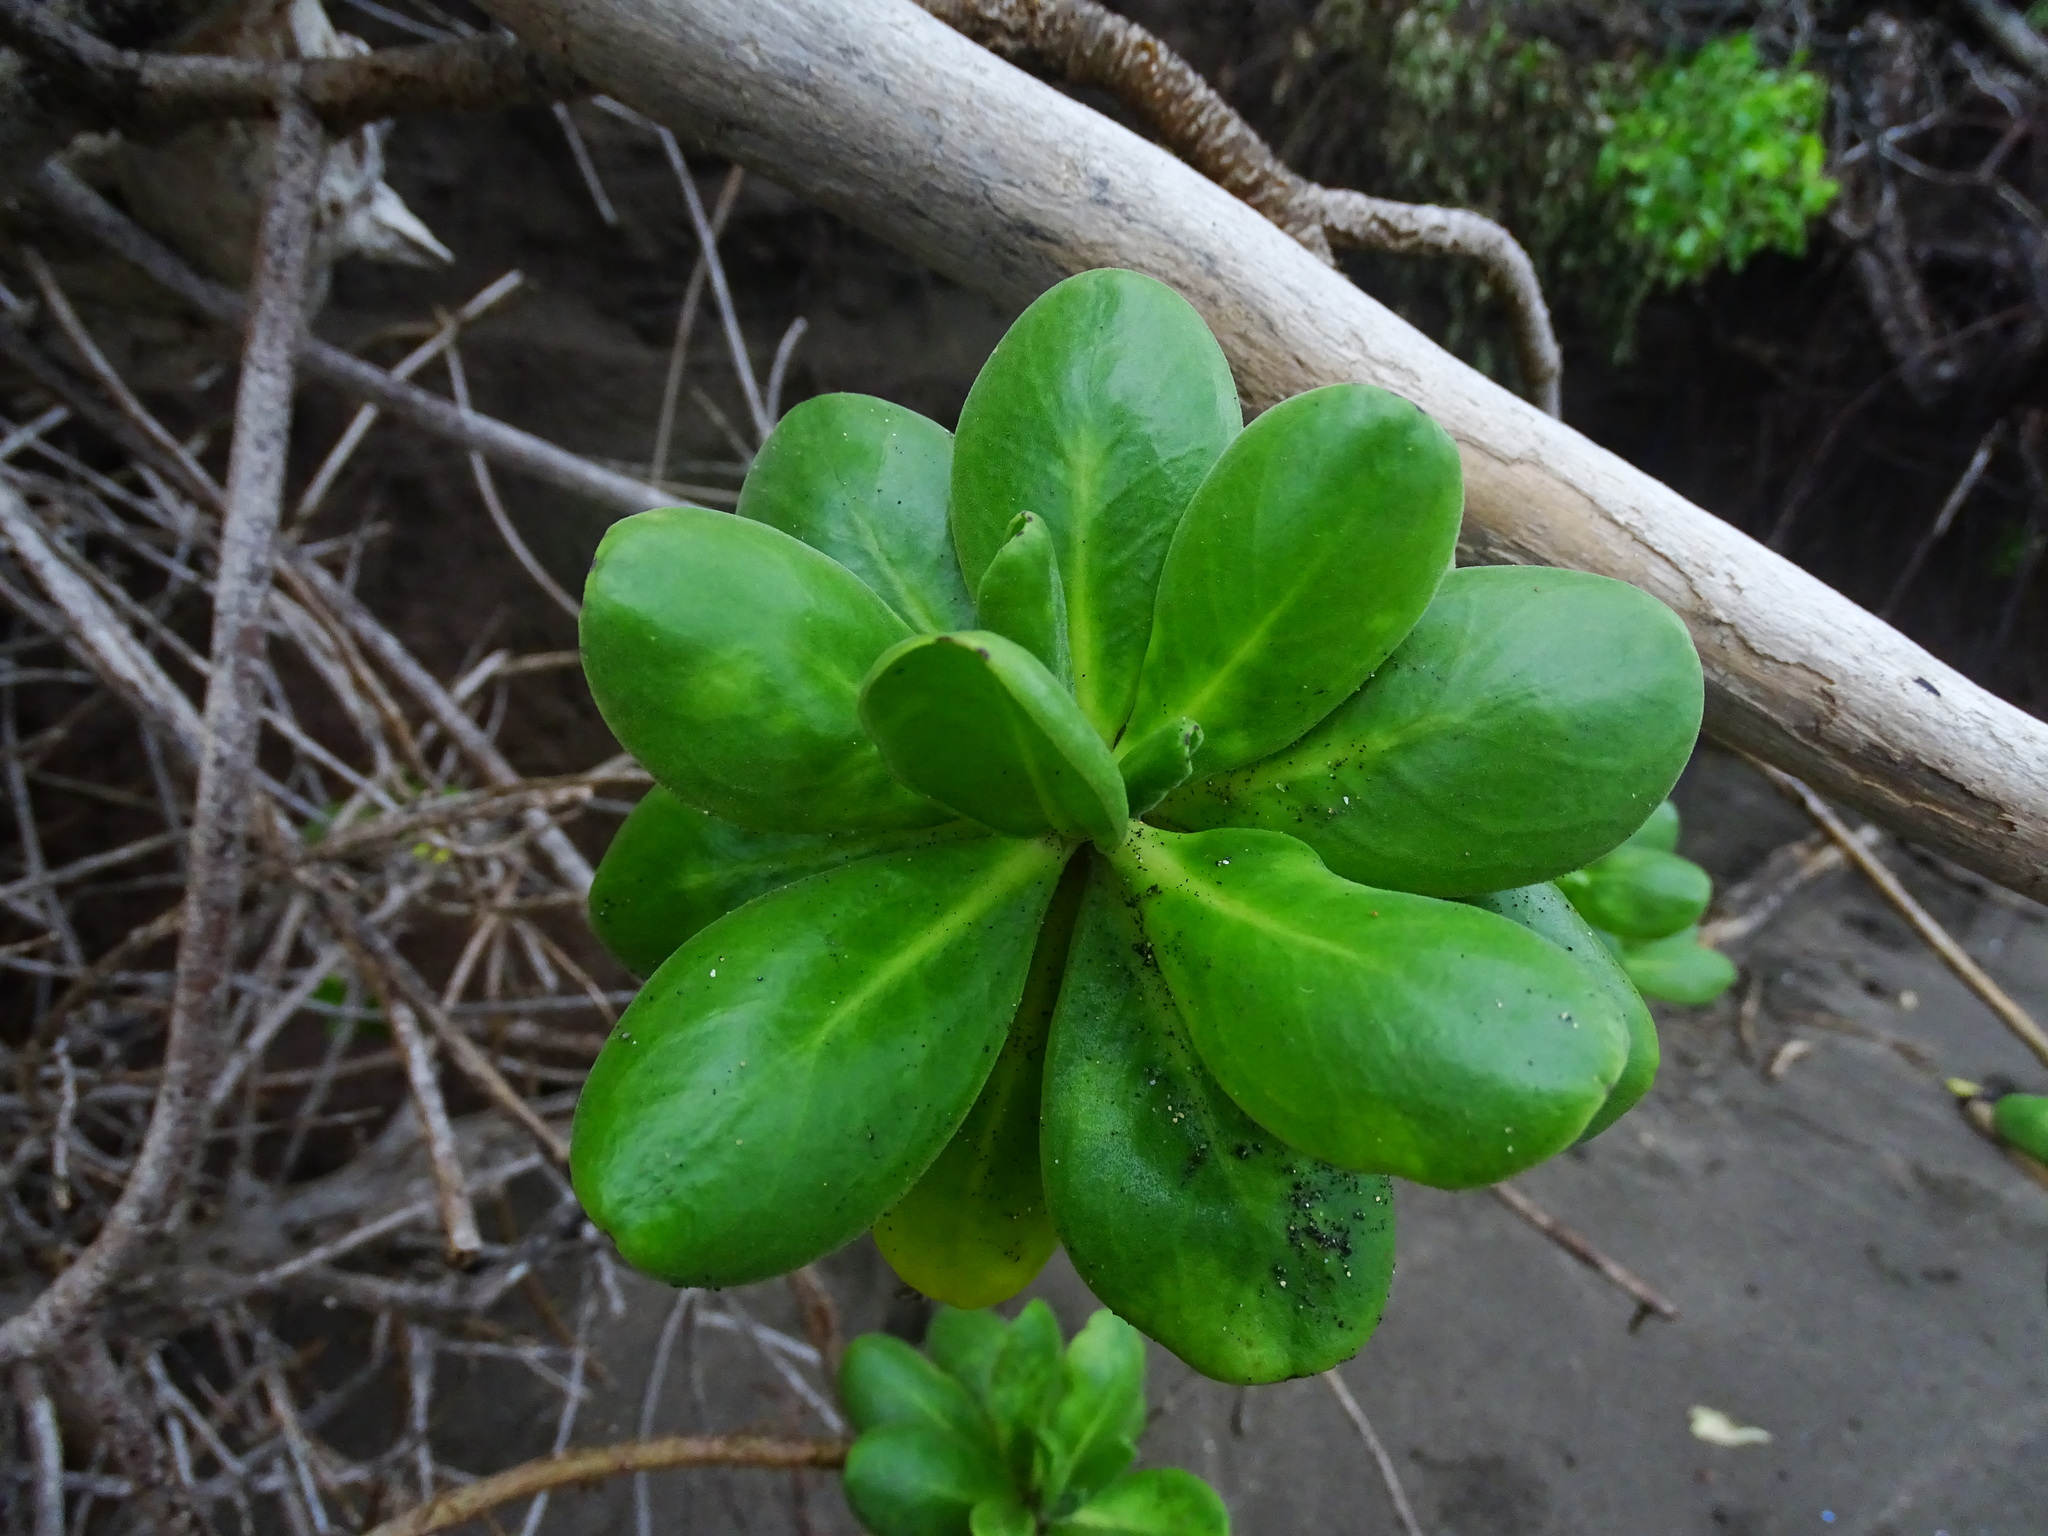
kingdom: Plantae
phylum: Tracheophyta
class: Magnoliopsida
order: Asterales
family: Goodeniaceae
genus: Scaevola
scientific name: Scaevola taccada
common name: Sea lettucetree
